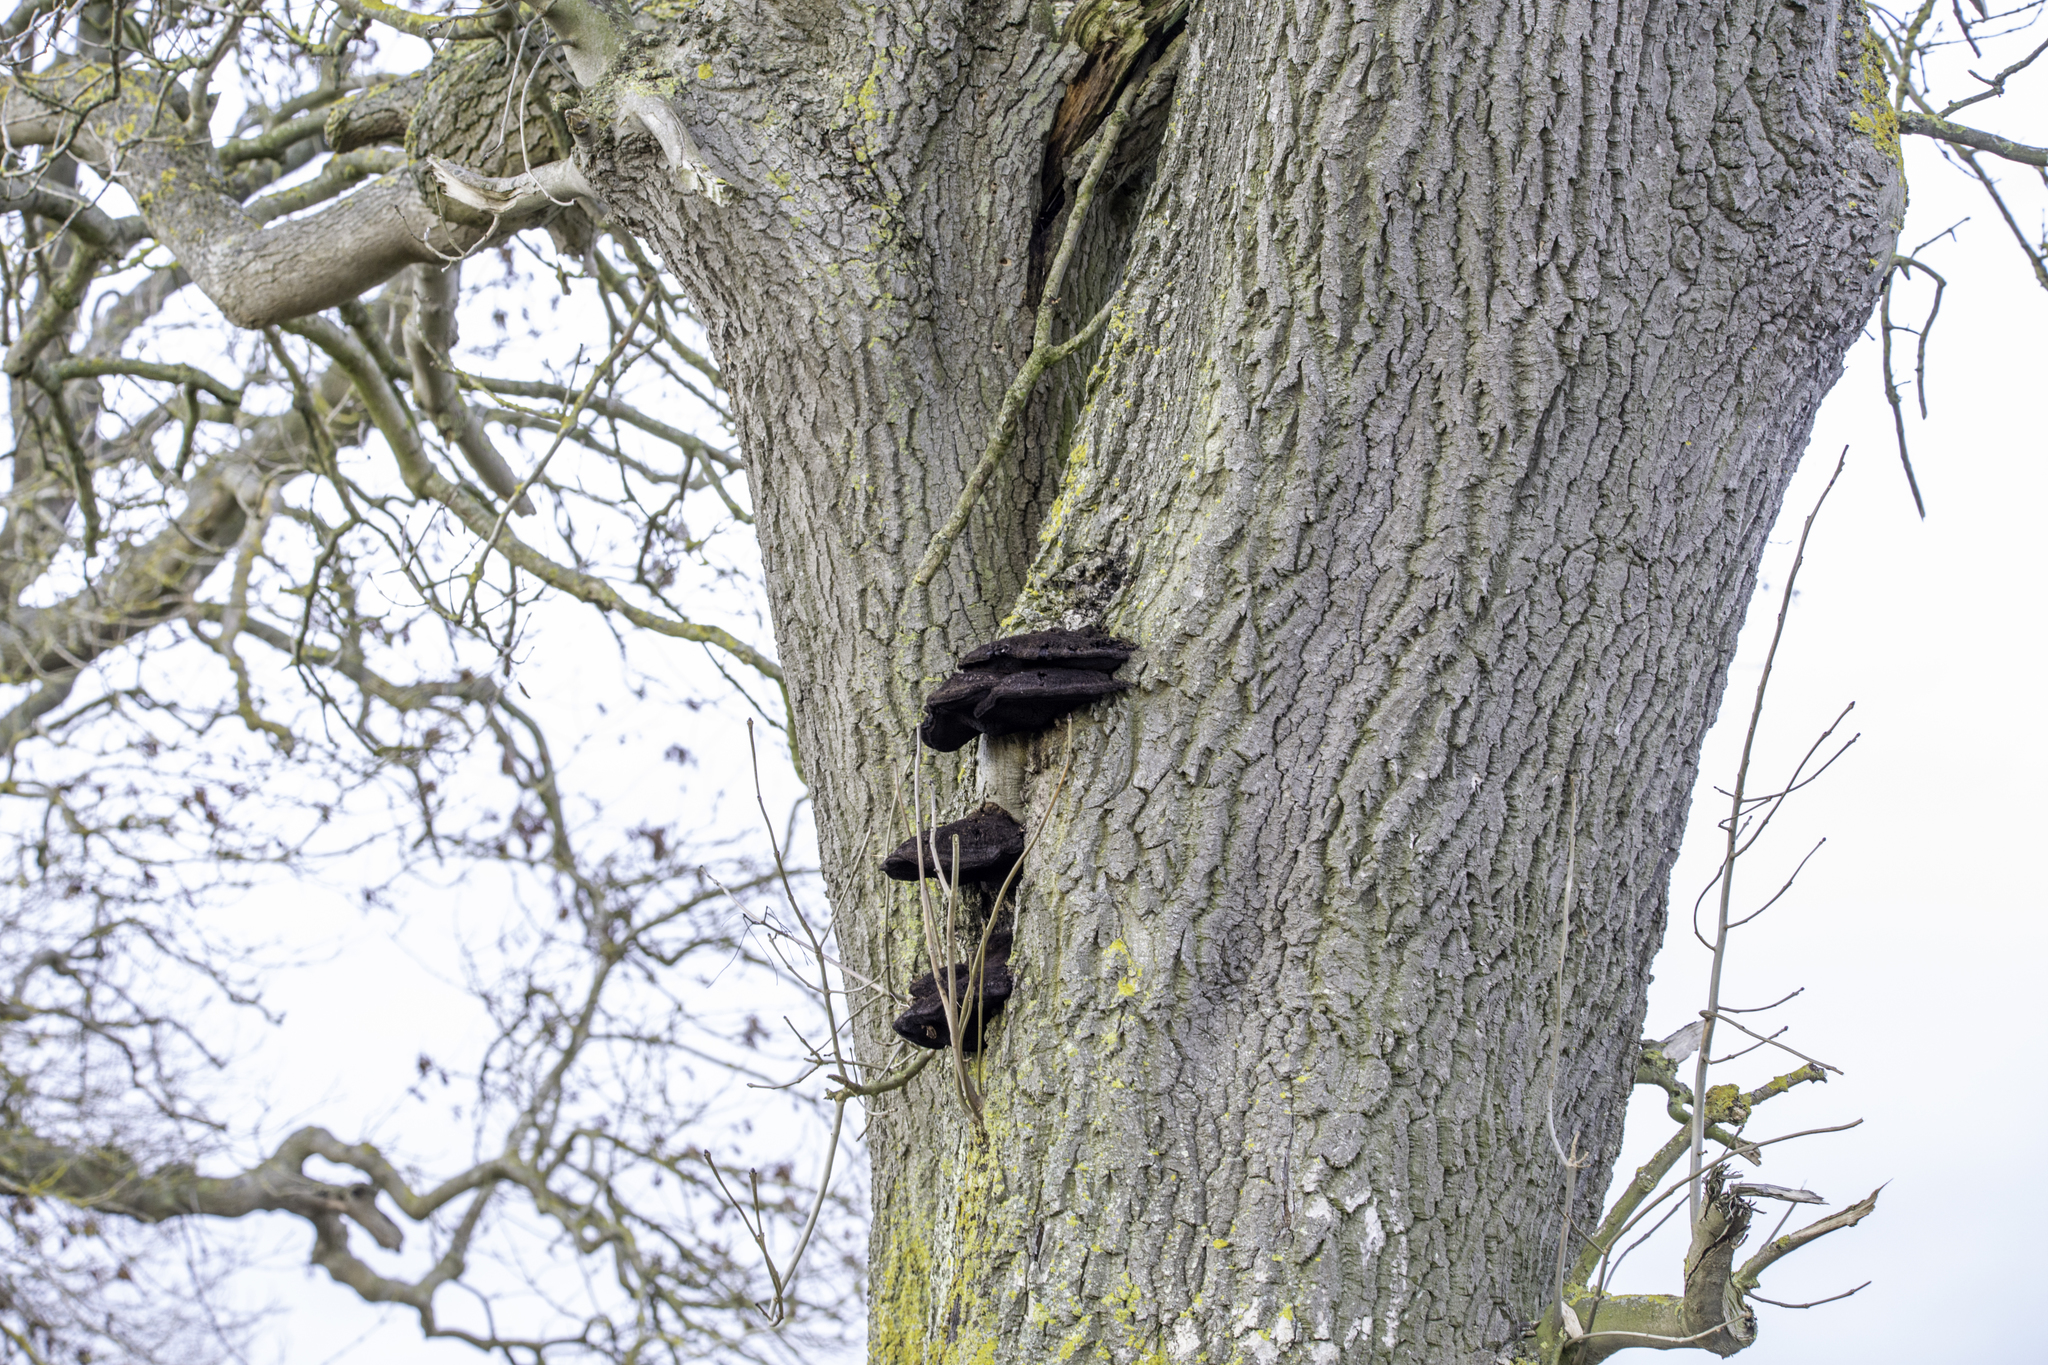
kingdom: Fungi
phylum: Basidiomycota
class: Agaricomycetes
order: Hymenochaetales
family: Hymenochaetaceae
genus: Inonotus
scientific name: Inonotus hispidus
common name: Shaggy bracket
